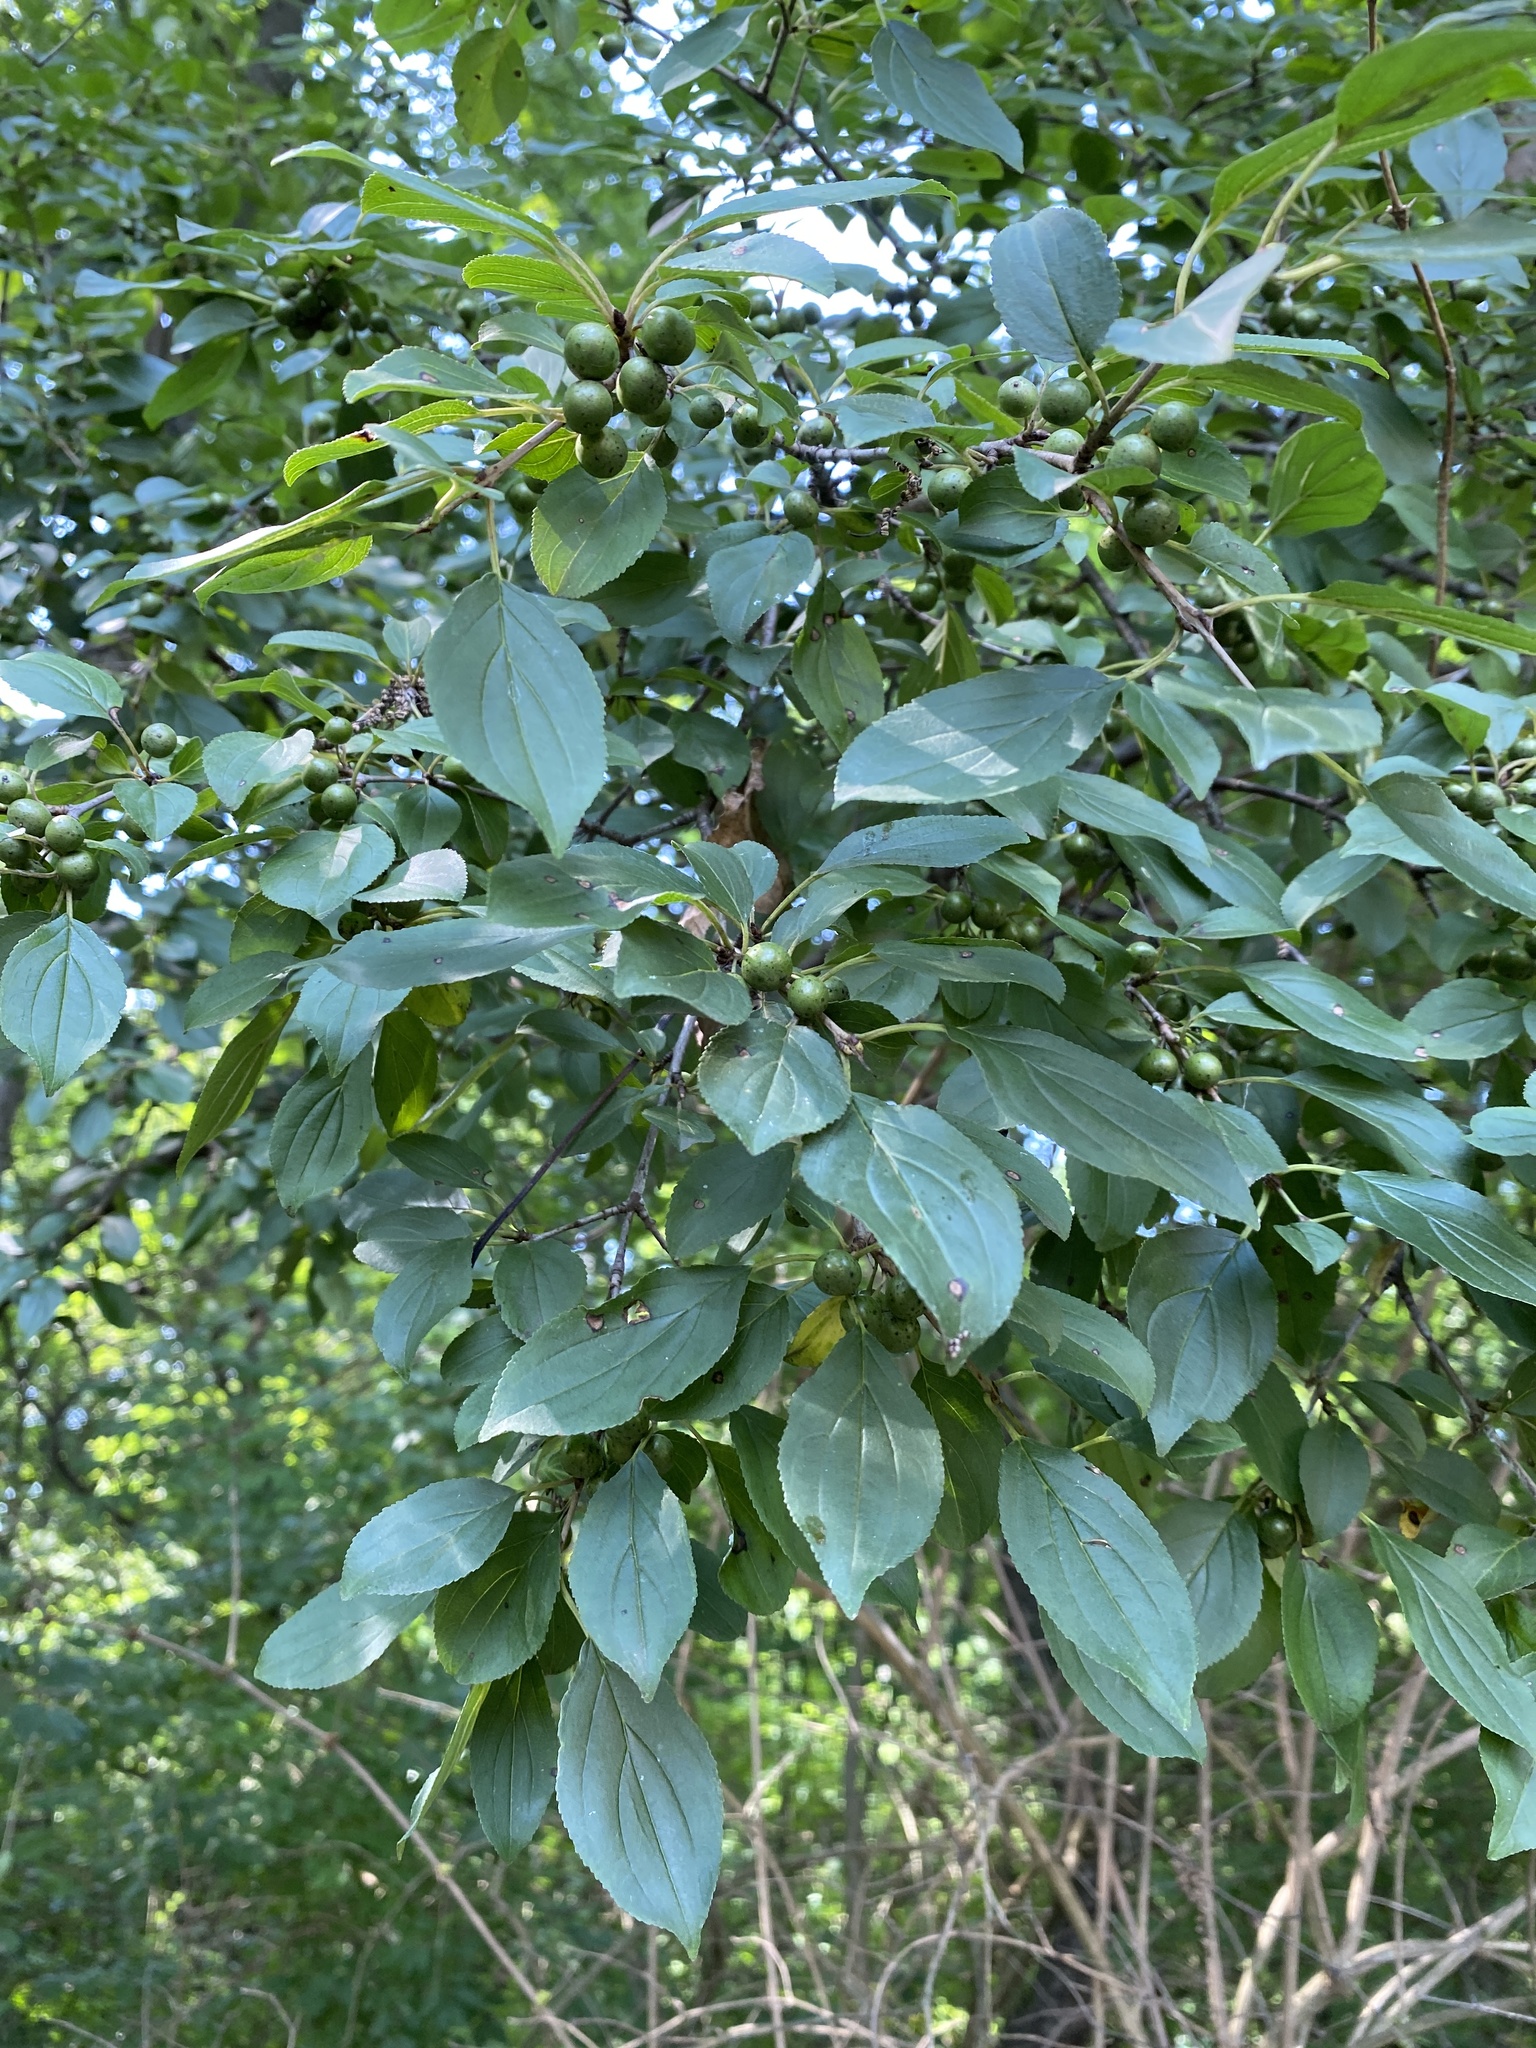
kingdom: Plantae
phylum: Tracheophyta
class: Magnoliopsida
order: Rosales
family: Rhamnaceae
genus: Rhamnus
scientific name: Rhamnus cathartica
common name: Common buckthorn
